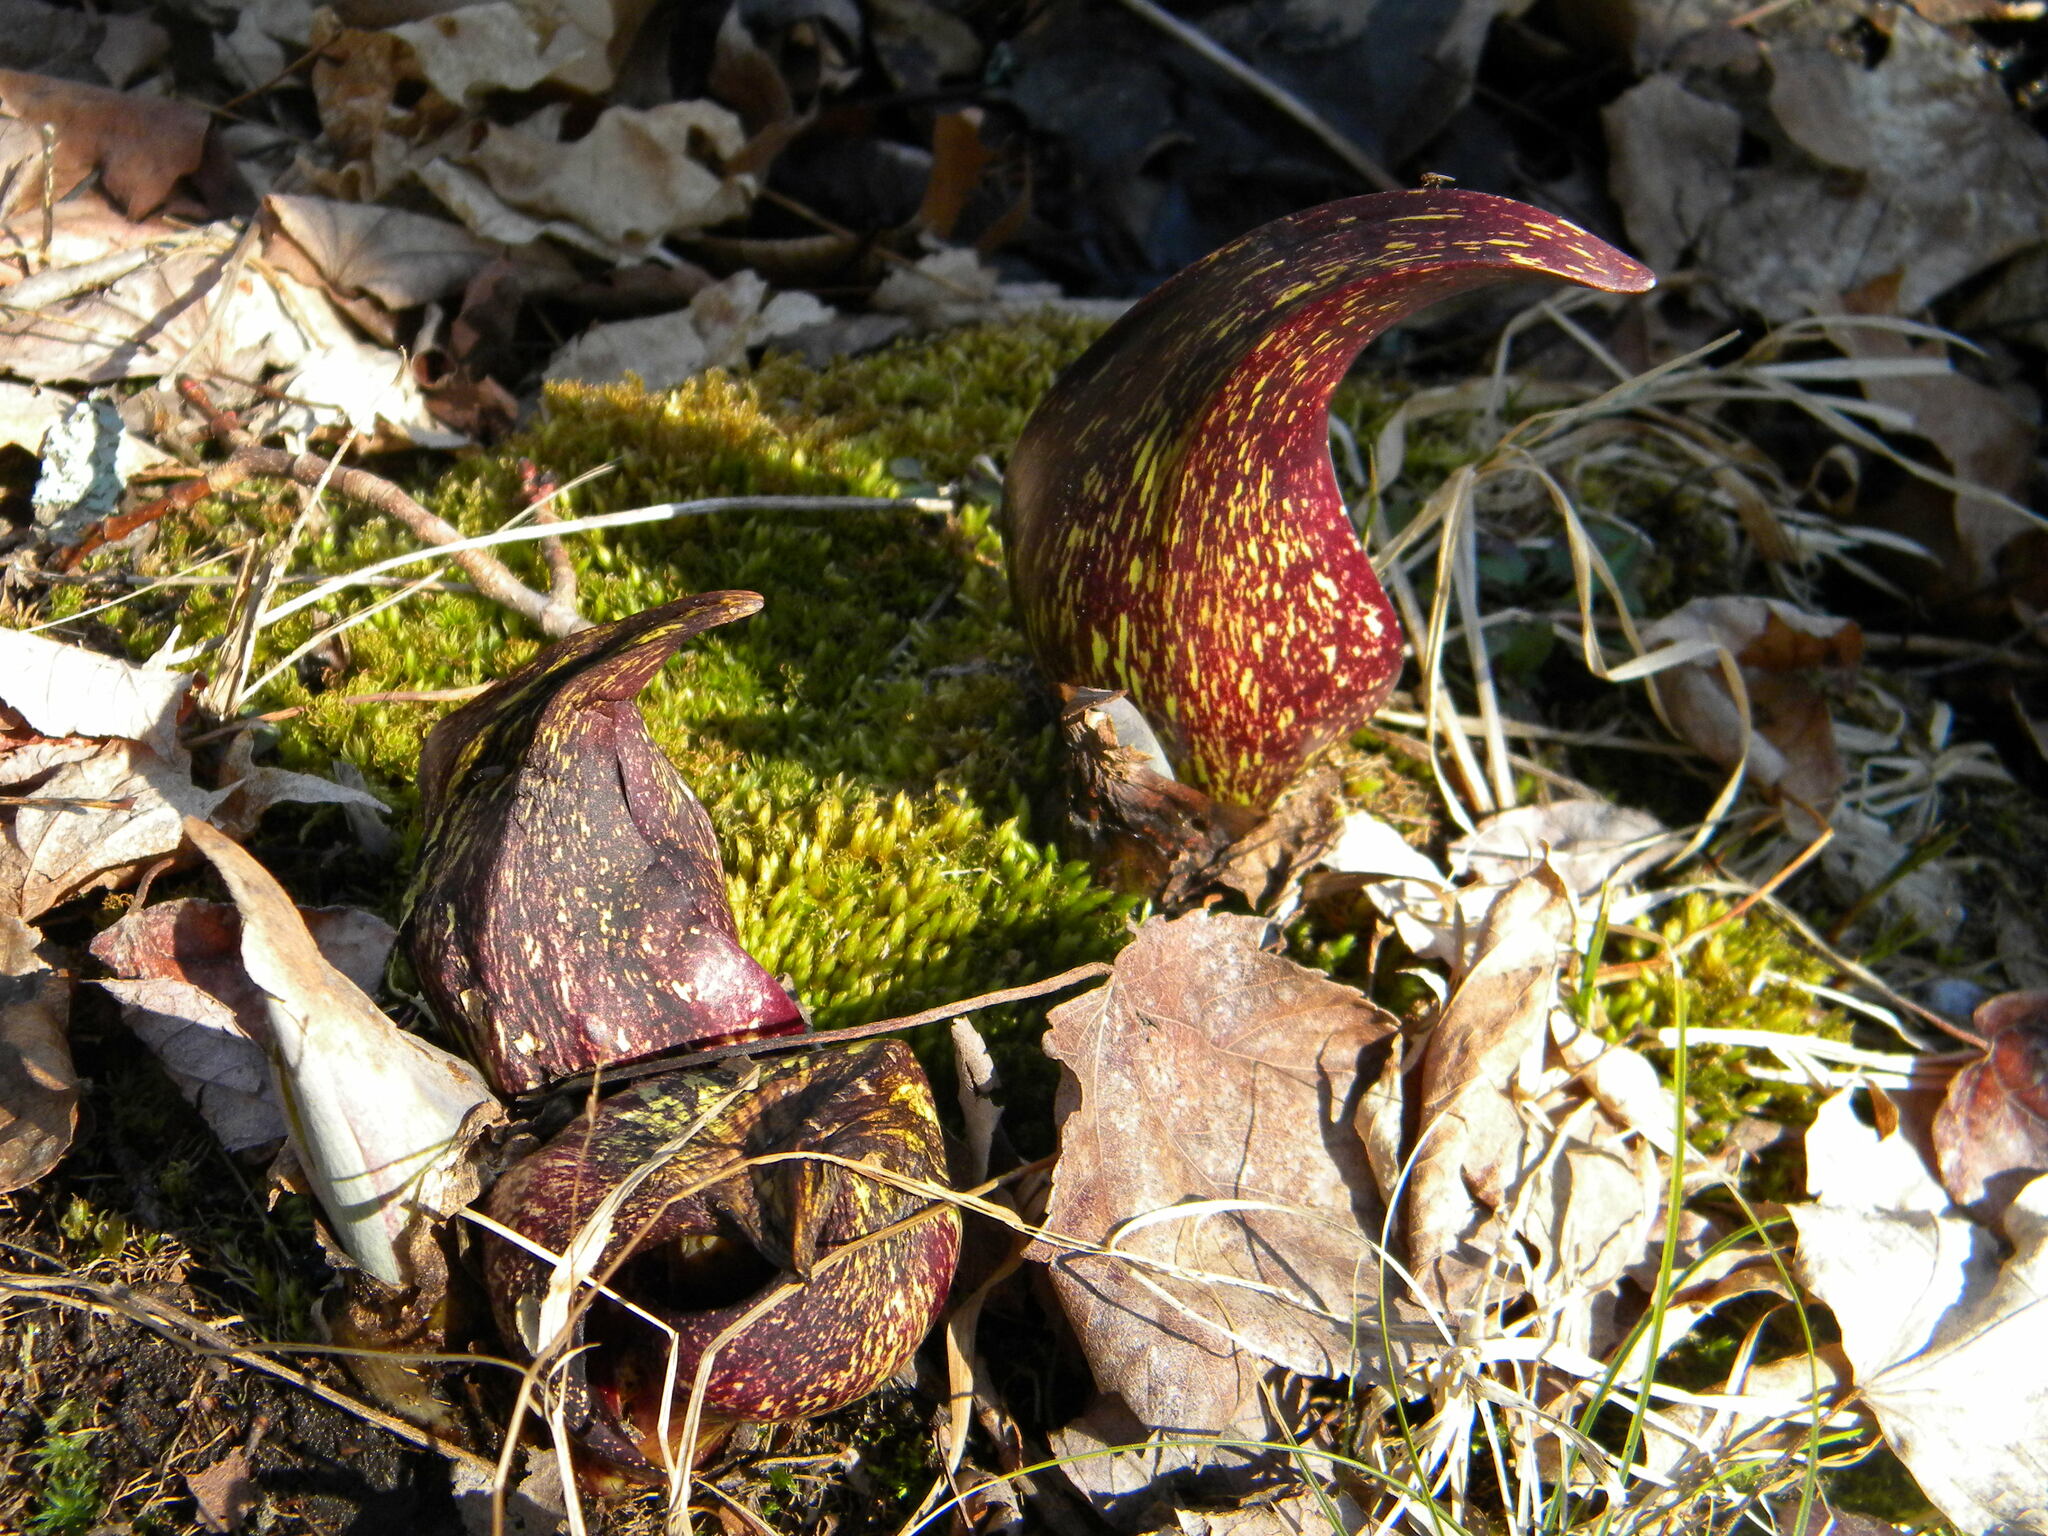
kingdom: Plantae
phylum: Tracheophyta
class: Liliopsida
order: Alismatales
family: Araceae
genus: Symplocarpus
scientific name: Symplocarpus foetidus
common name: Eastern skunk cabbage
